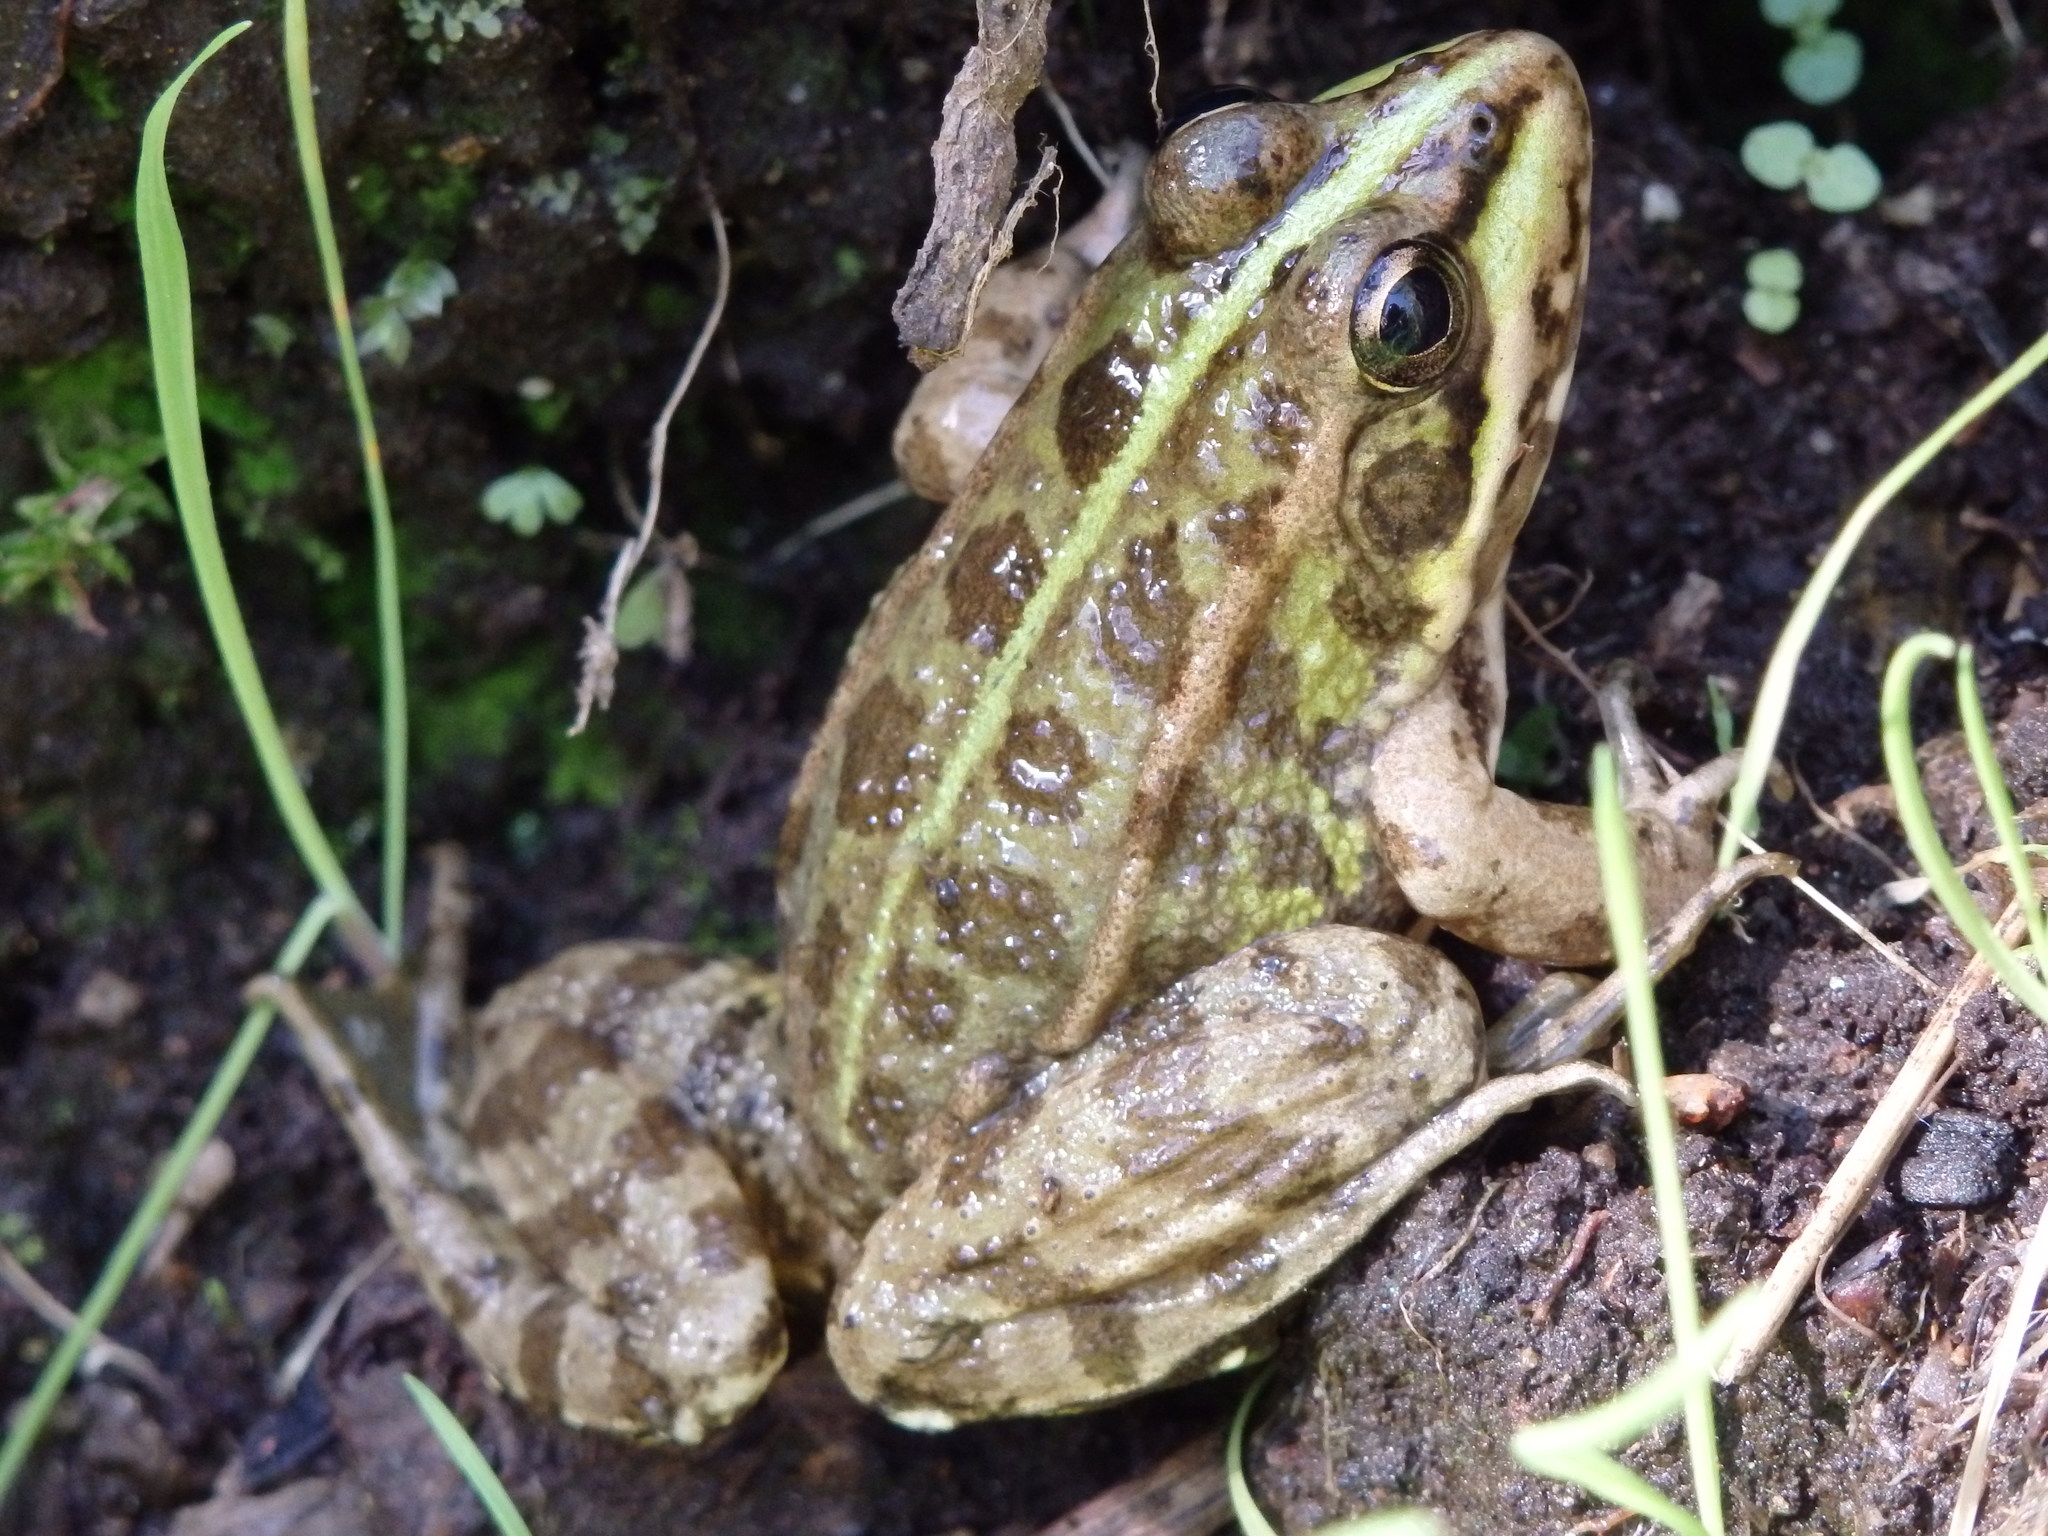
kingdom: Animalia
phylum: Chordata
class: Amphibia
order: Anura
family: Ranidae
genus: Pelophylax
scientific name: Pelophylax perezi
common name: Perez's frog
